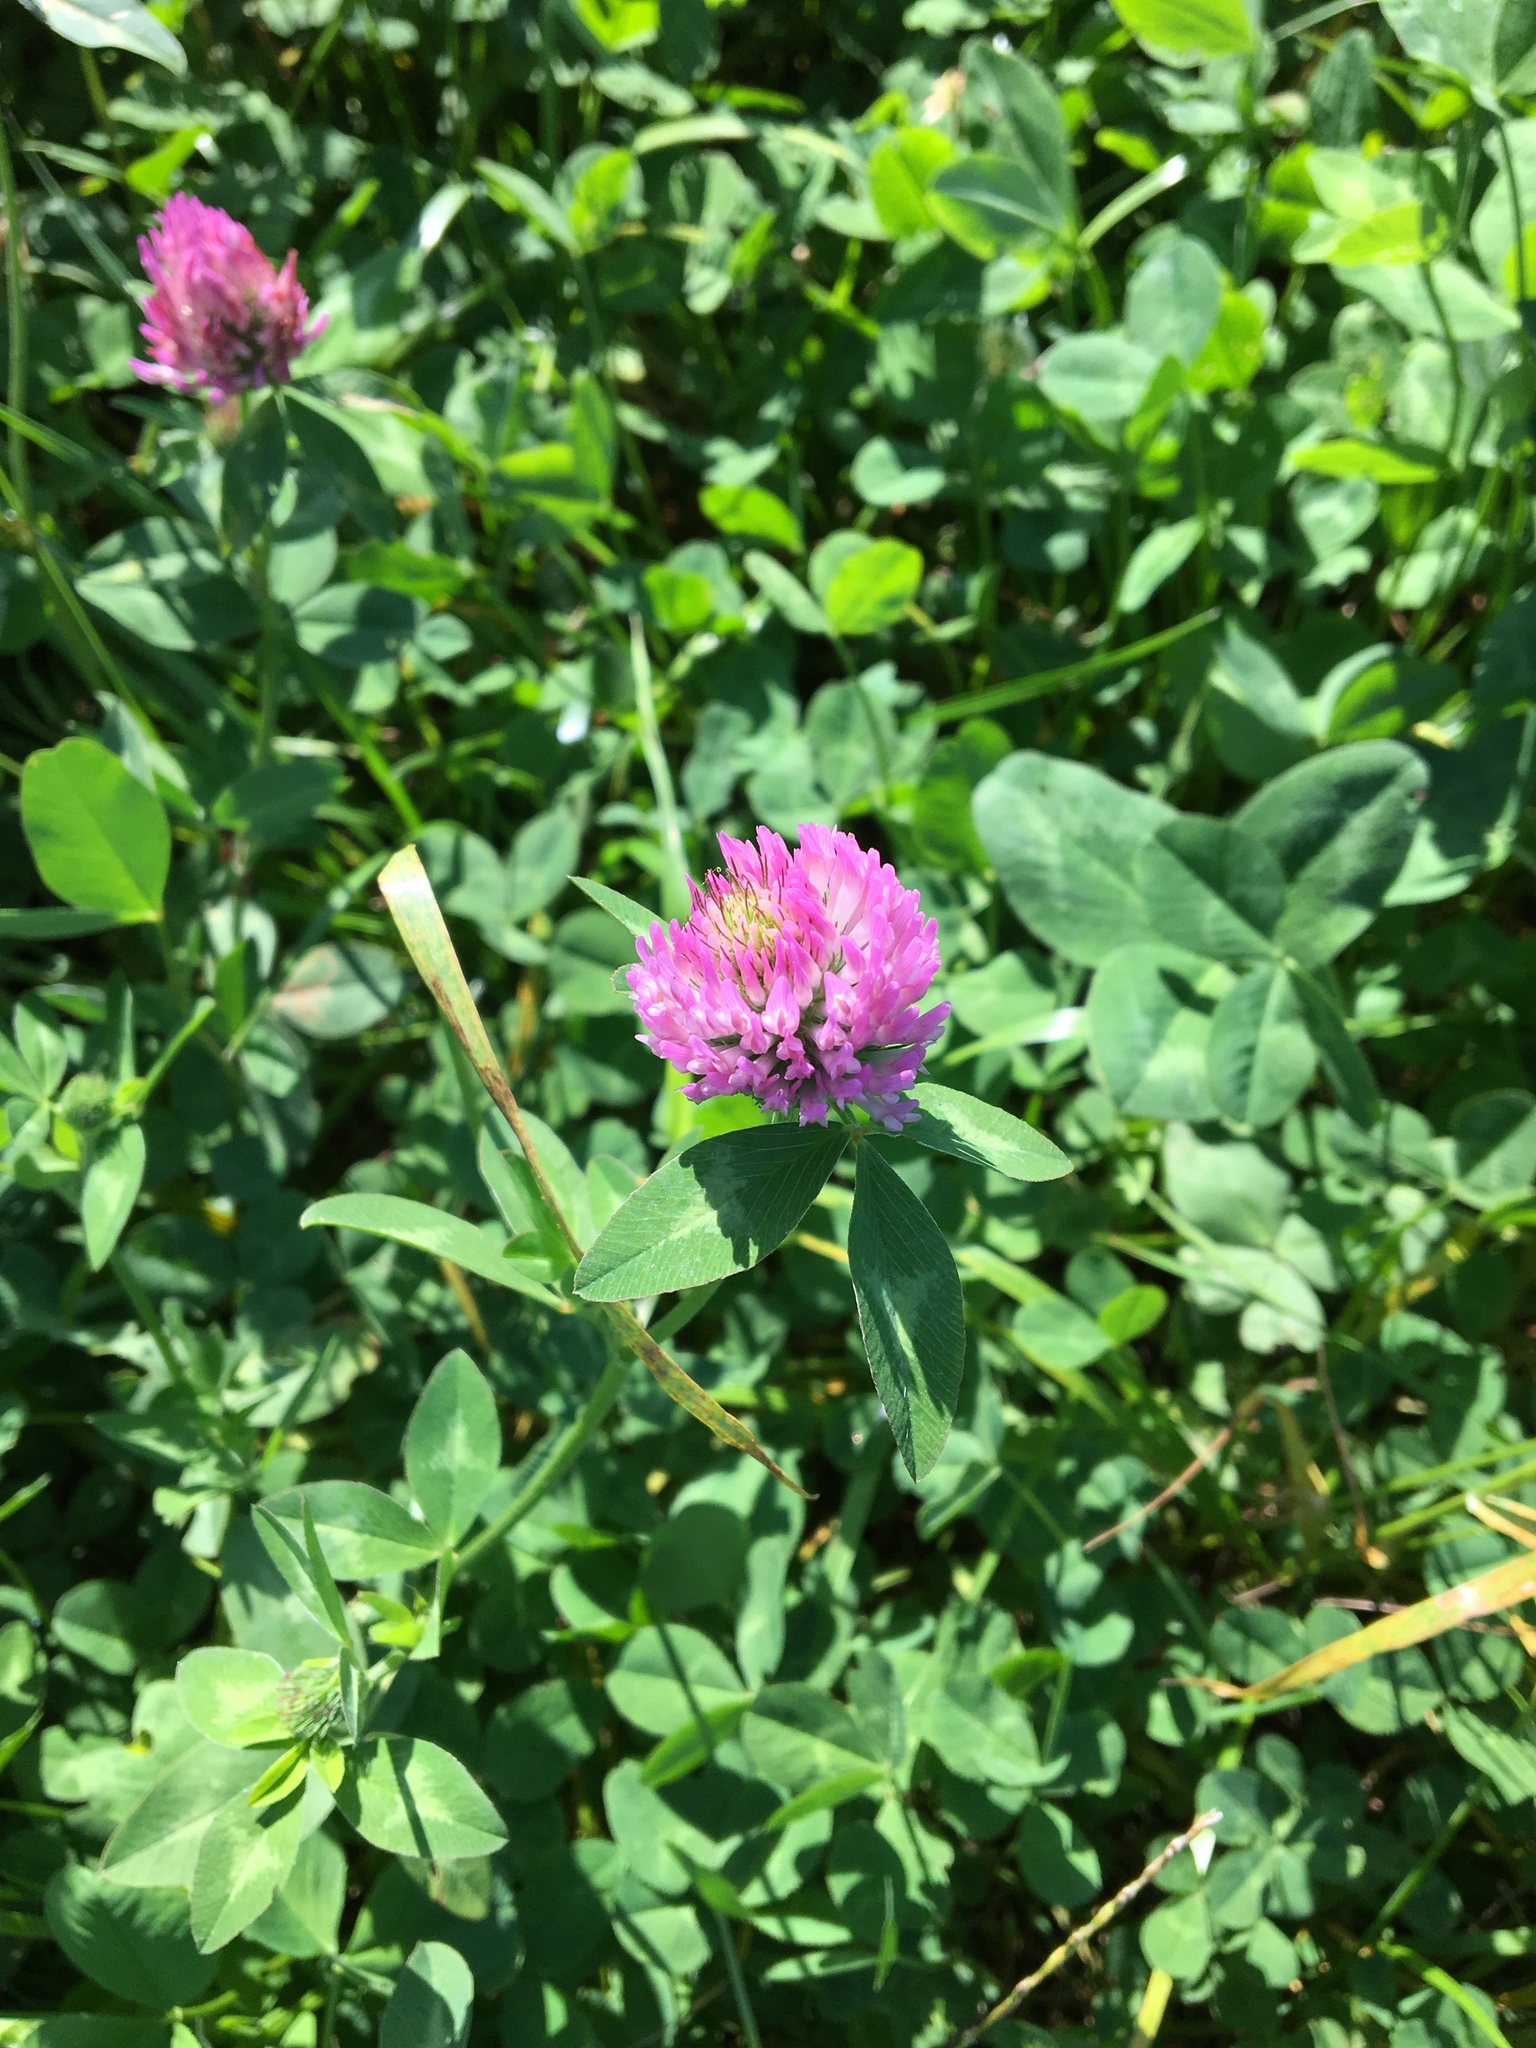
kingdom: Plantae
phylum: Tracheophyta
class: Magnoliopsida
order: Fabales
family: Fabaceae
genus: Trifolium
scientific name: Trifolium pratense
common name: Red clover
